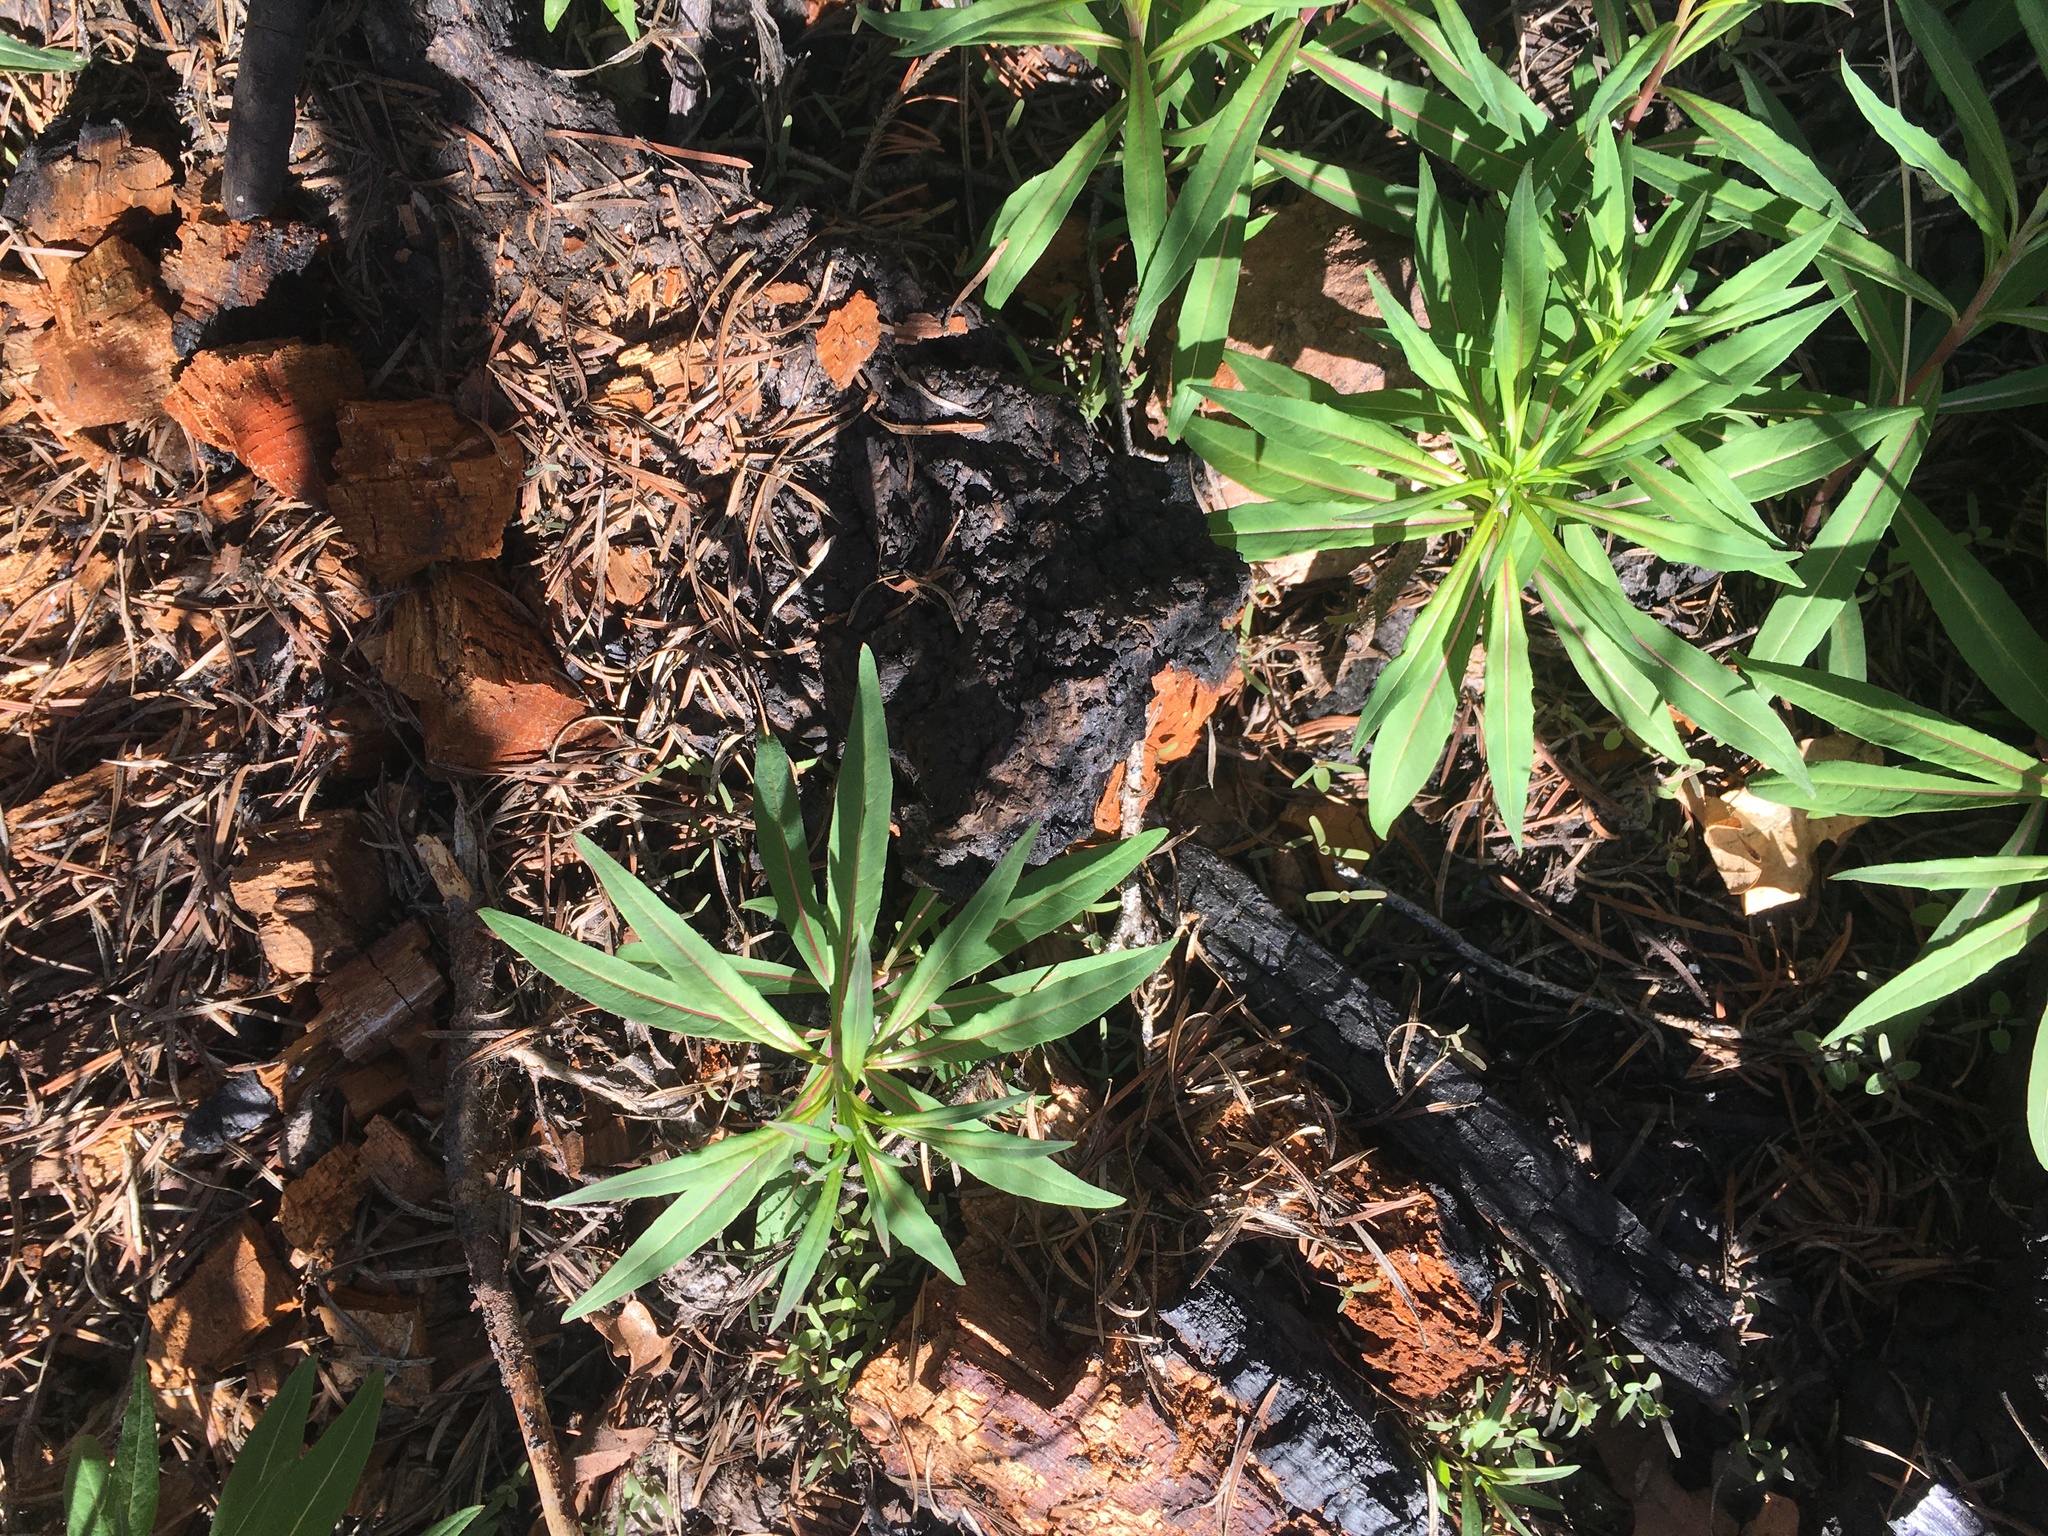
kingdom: Plantae
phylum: Tracheophyta
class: Magnoliopsida
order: Myrtales
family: Onagraceae
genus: Chamaenerion
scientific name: Chamaenerion angustifolium
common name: Fireweed
